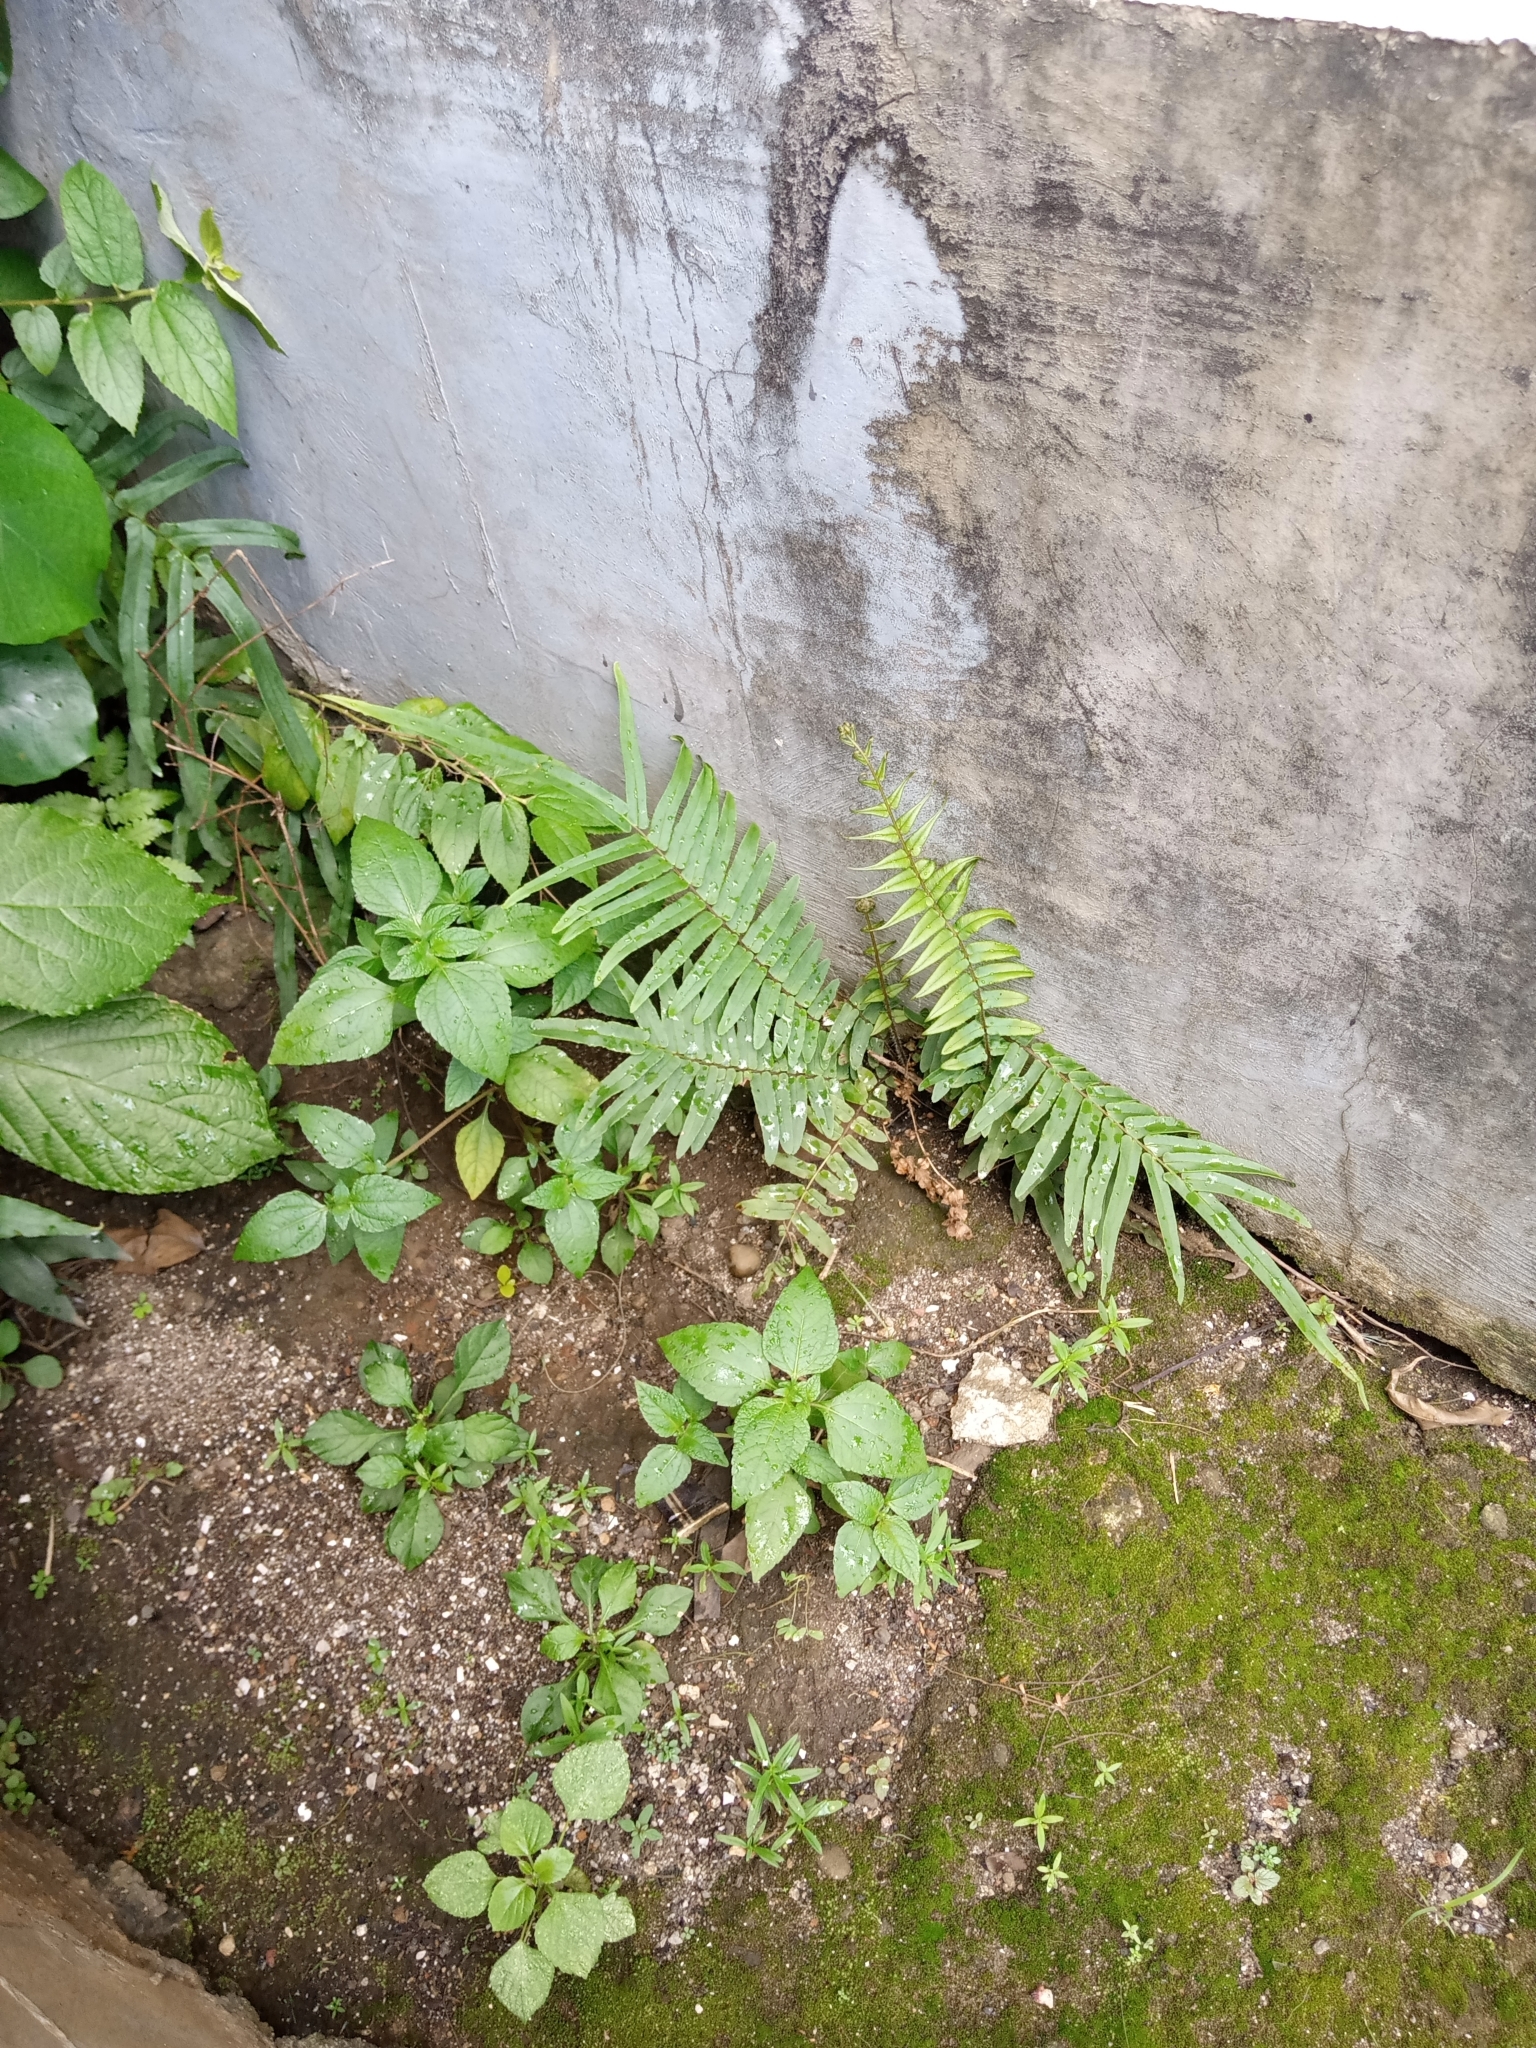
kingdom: Plantae
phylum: Tracheophyta
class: Polypodiopsida
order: Polypodiales
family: Pteridaceae
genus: Pteris
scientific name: Pteris vittata
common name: Ladder brake
